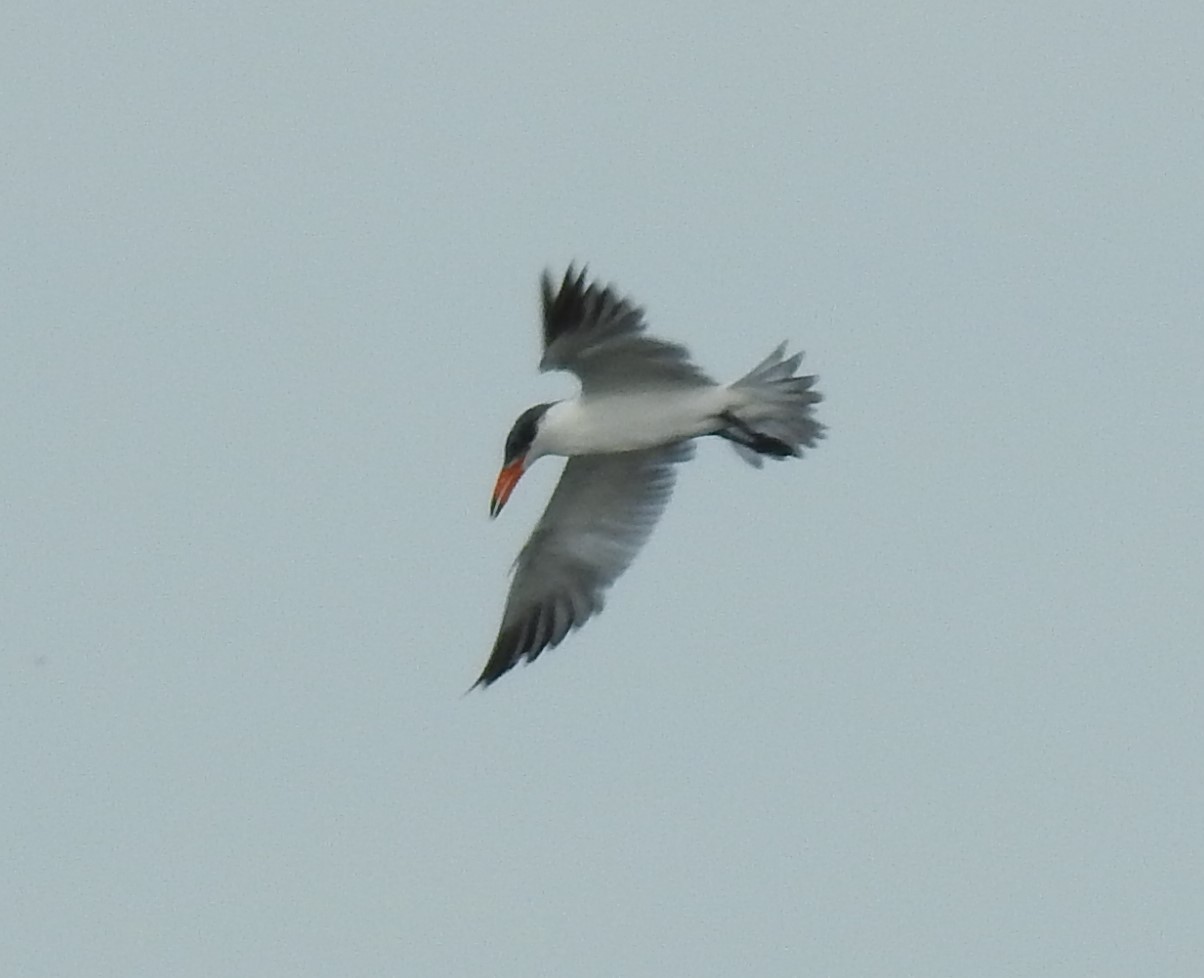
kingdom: Animalia
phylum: Chordata
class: Aves
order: Charadriiformes
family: Laridae
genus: Hydroprogne
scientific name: Hydroprogne caspia
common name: Caspian tern
